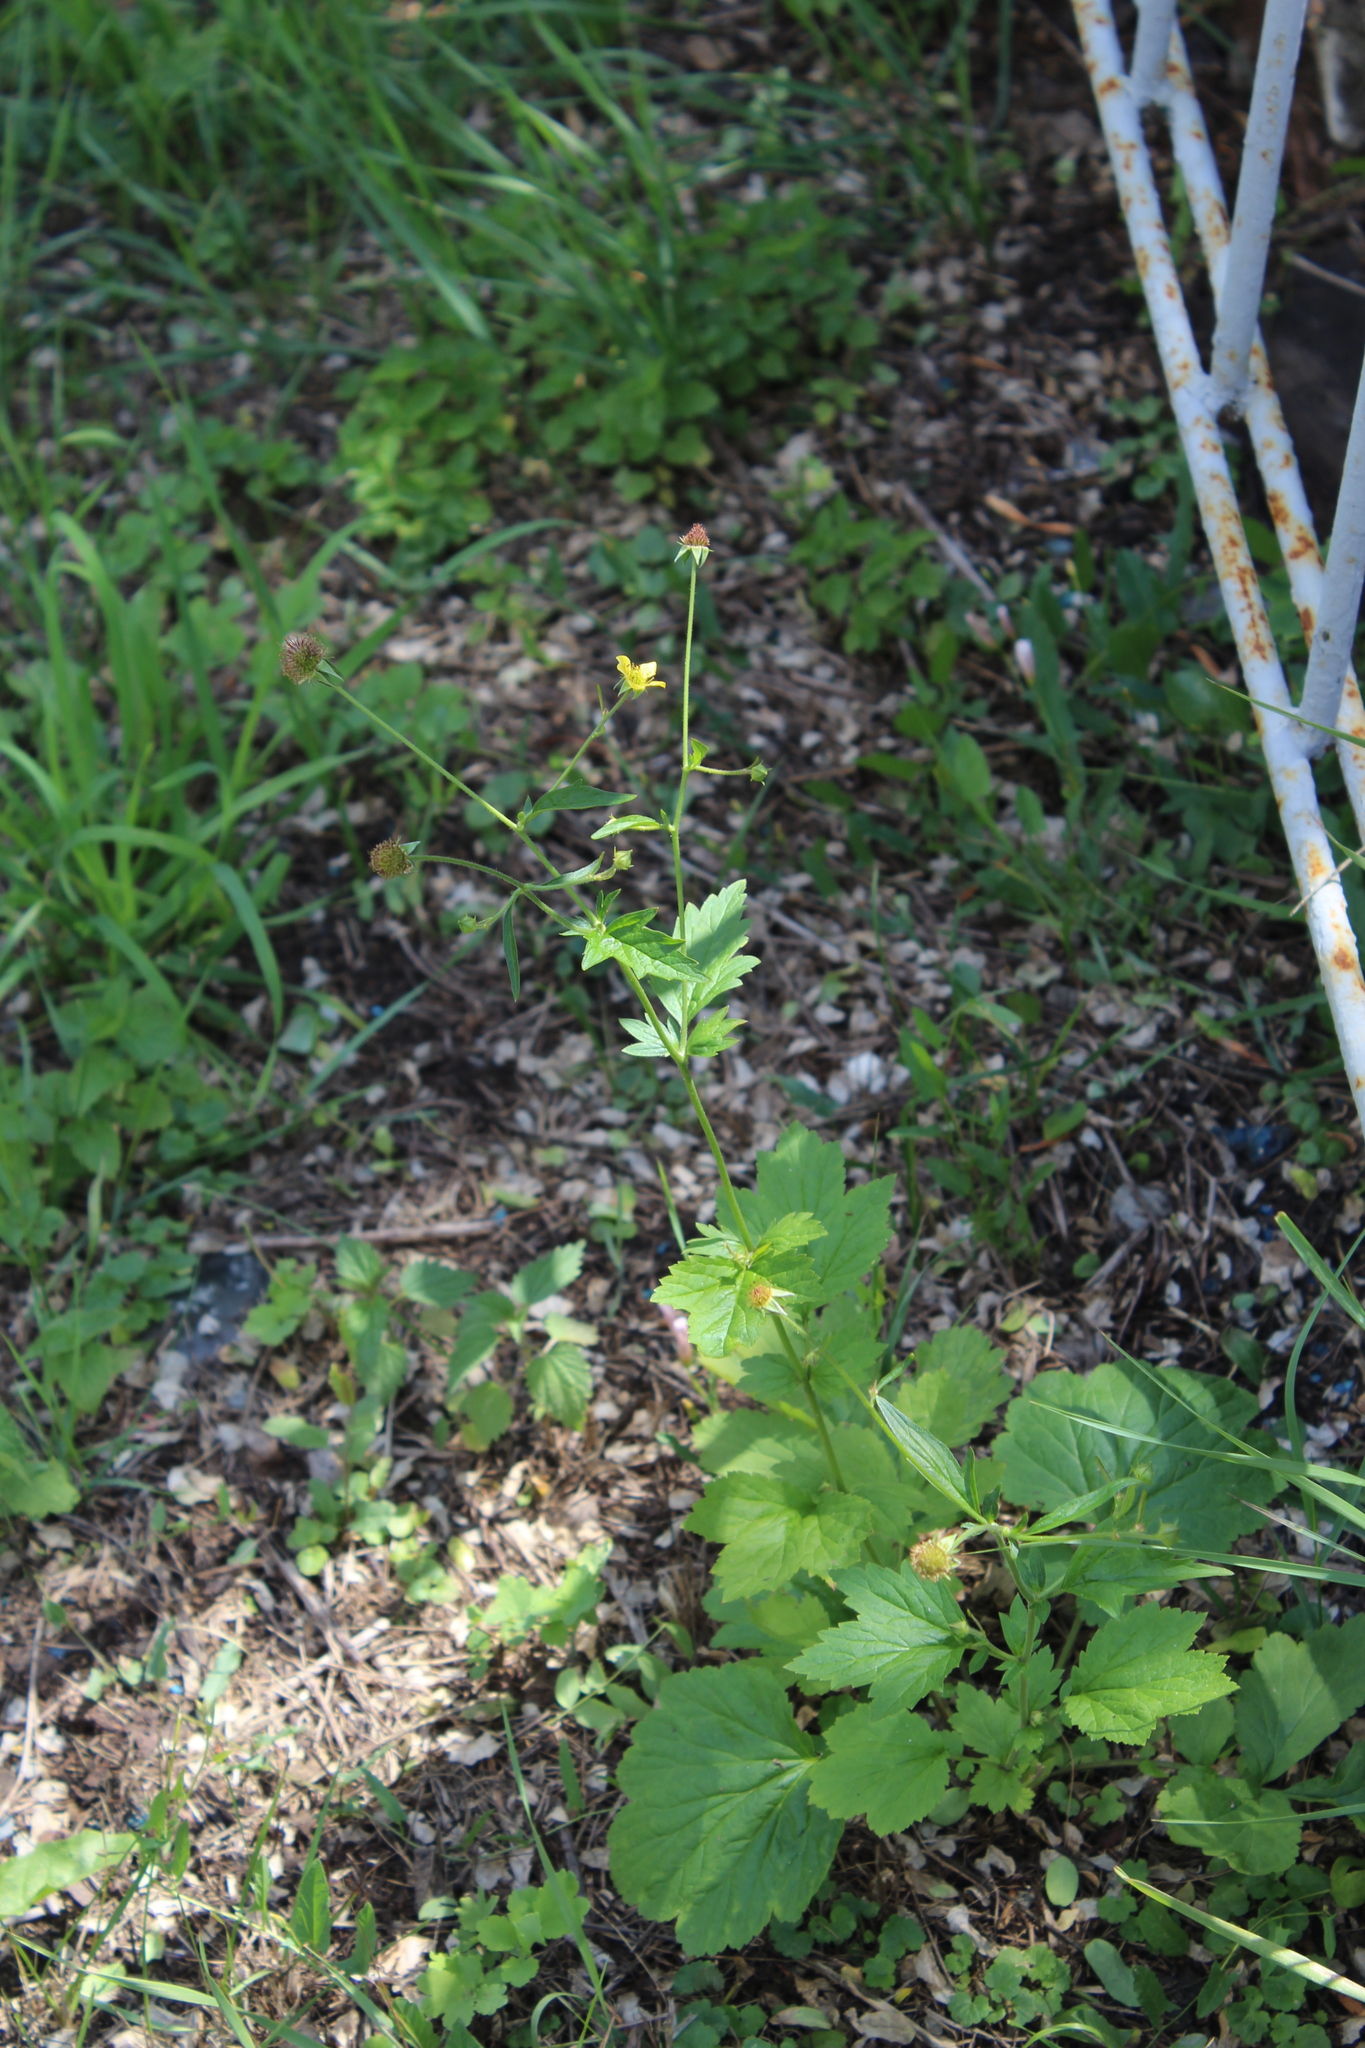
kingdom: Plantae
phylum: Tracheophyta
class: Magnoliopsida
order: Rosales
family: Rosaceae
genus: Geum
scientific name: Geum urbanum
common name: Wood avens
